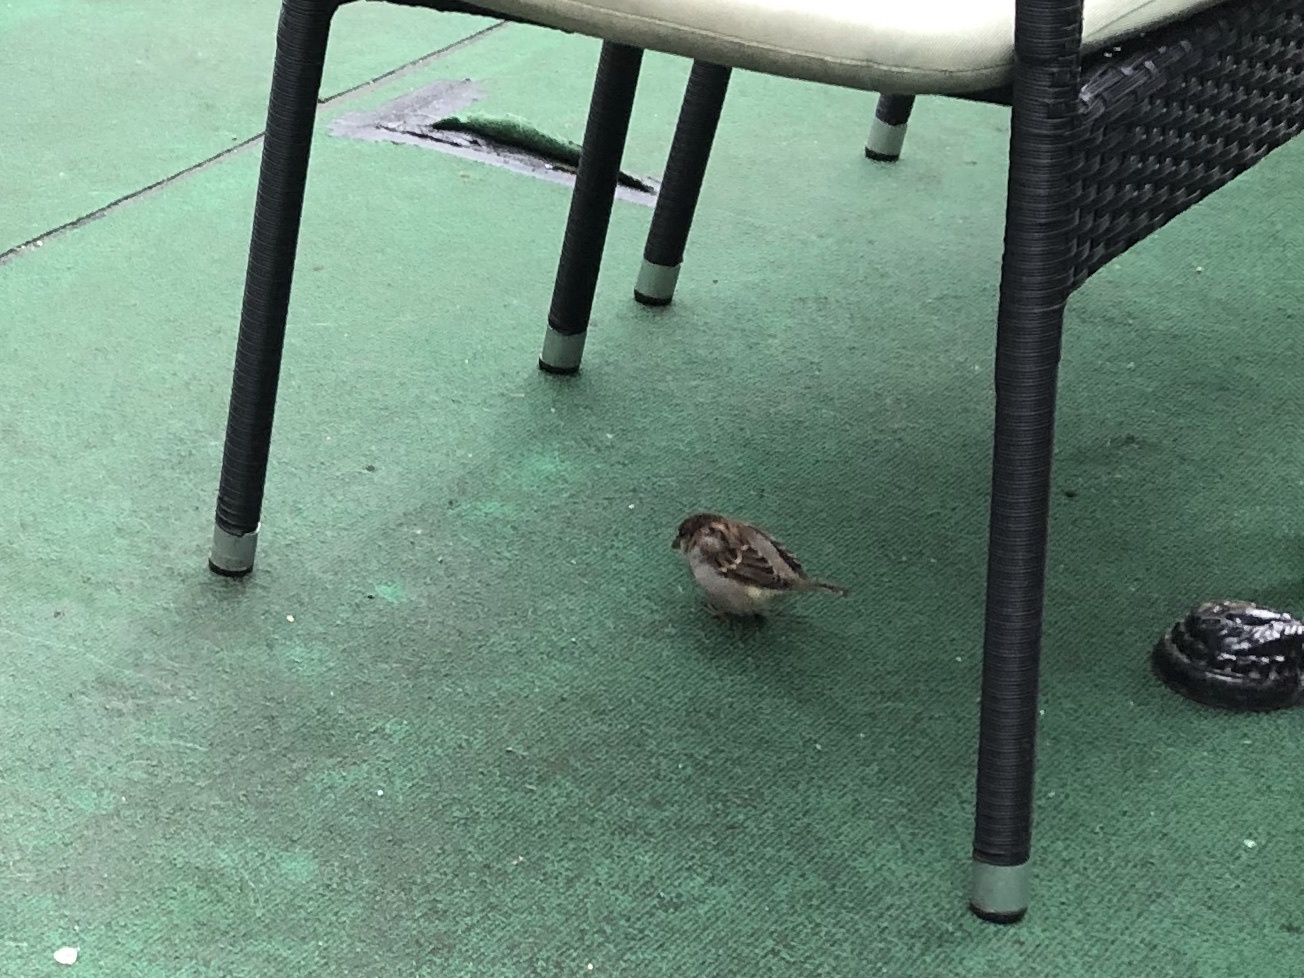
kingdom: Animalia
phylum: Chordata
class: Aves
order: Passeriformes
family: Passeridae
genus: Passer
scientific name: Passer domesticus
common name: House sparrow
